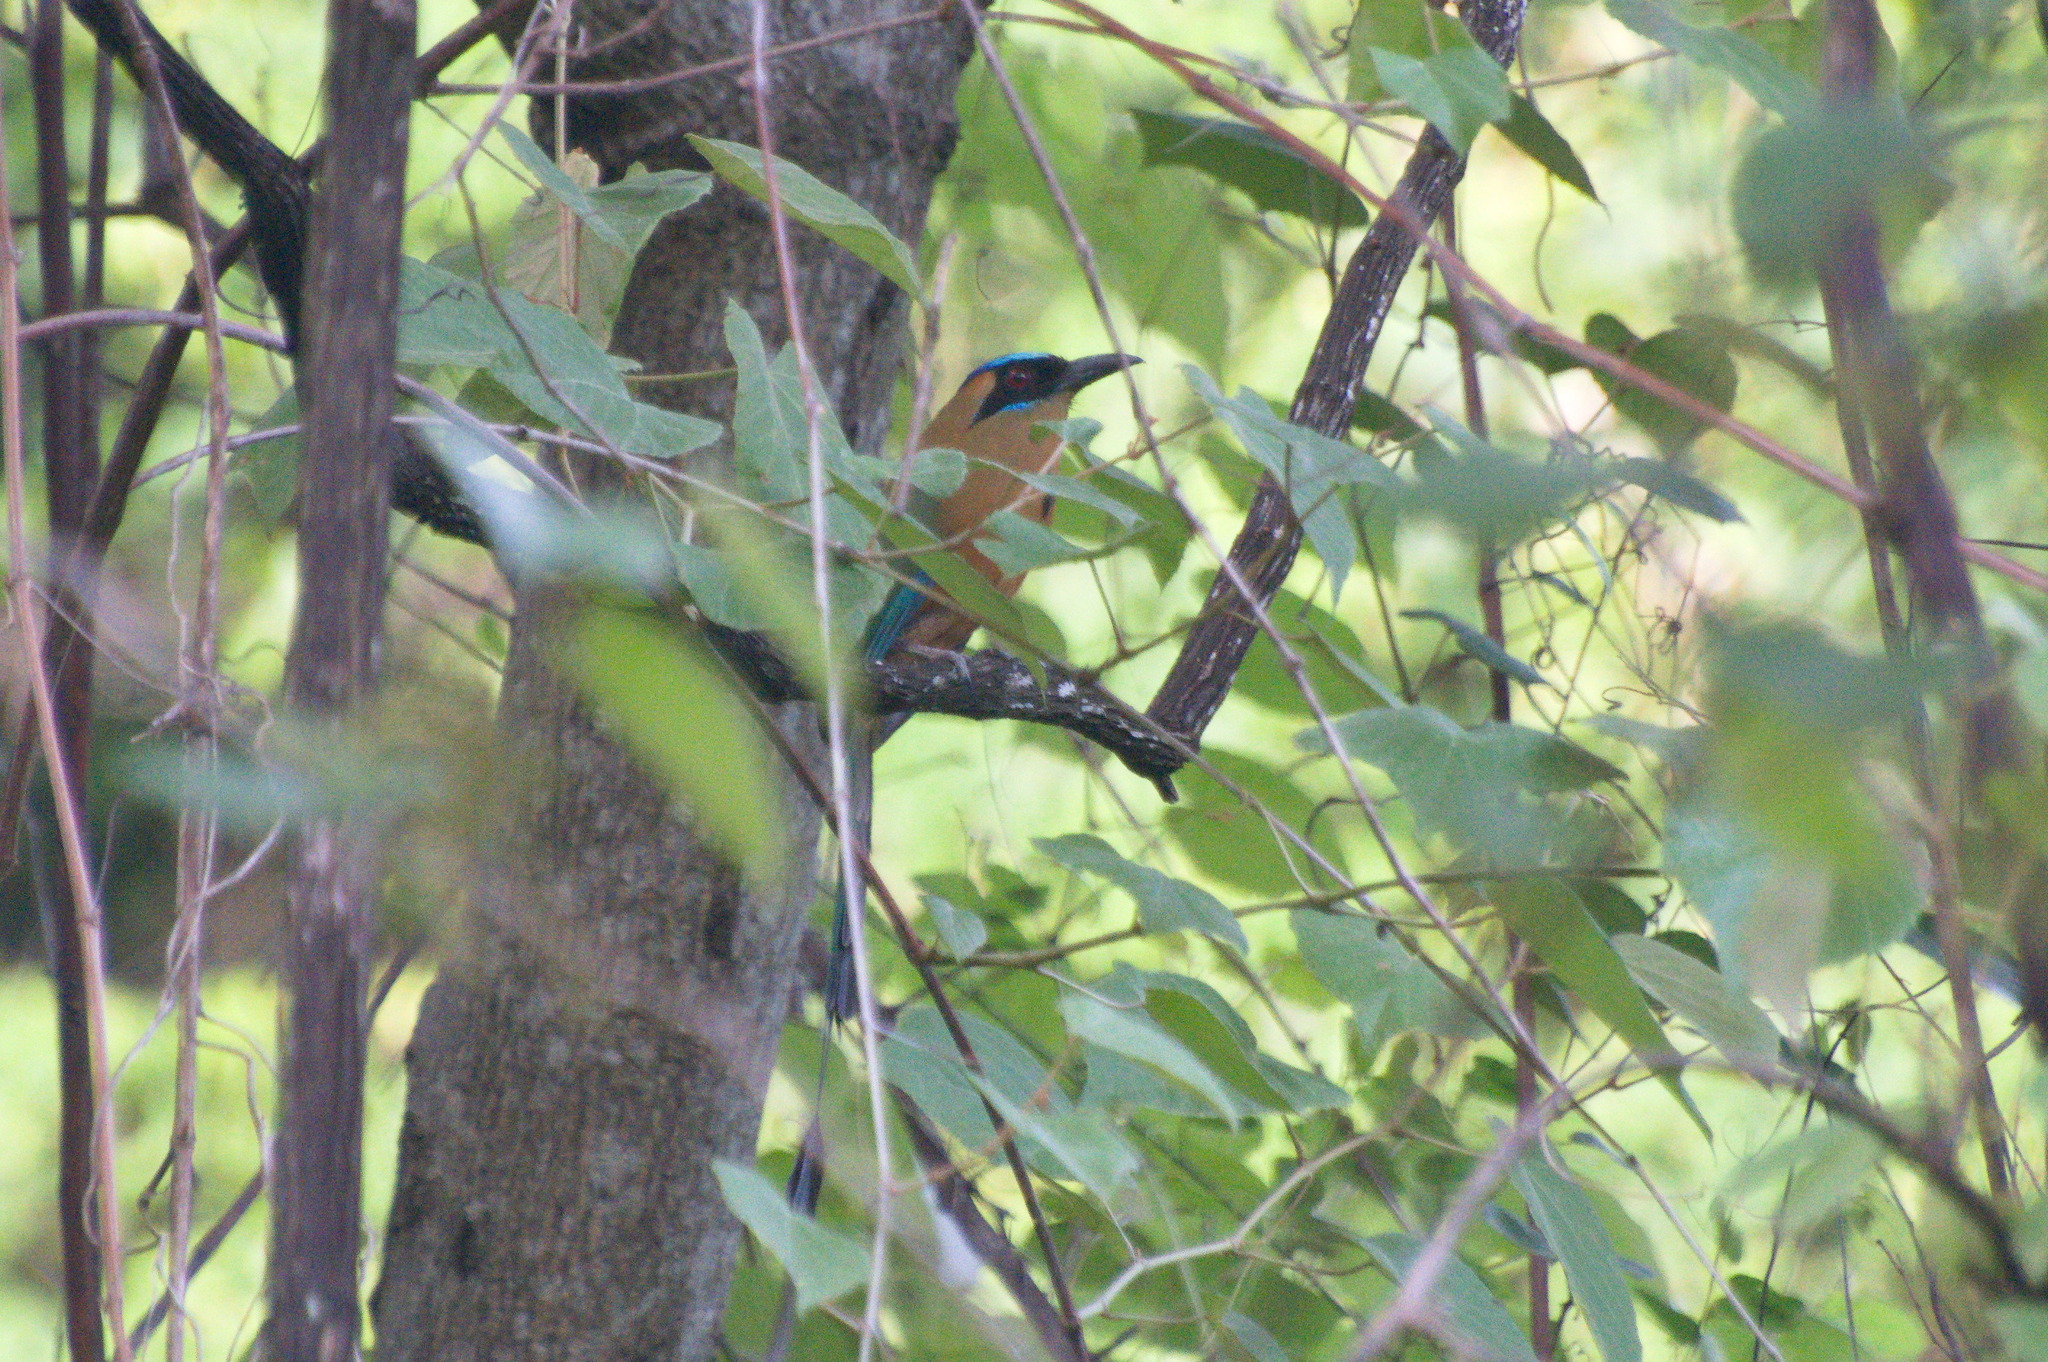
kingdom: Animalia
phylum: Chordata
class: Aves
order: Coraciiformes
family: Momotidae
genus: Momotus
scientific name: Momotus subrufescens
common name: Whooping motmot
